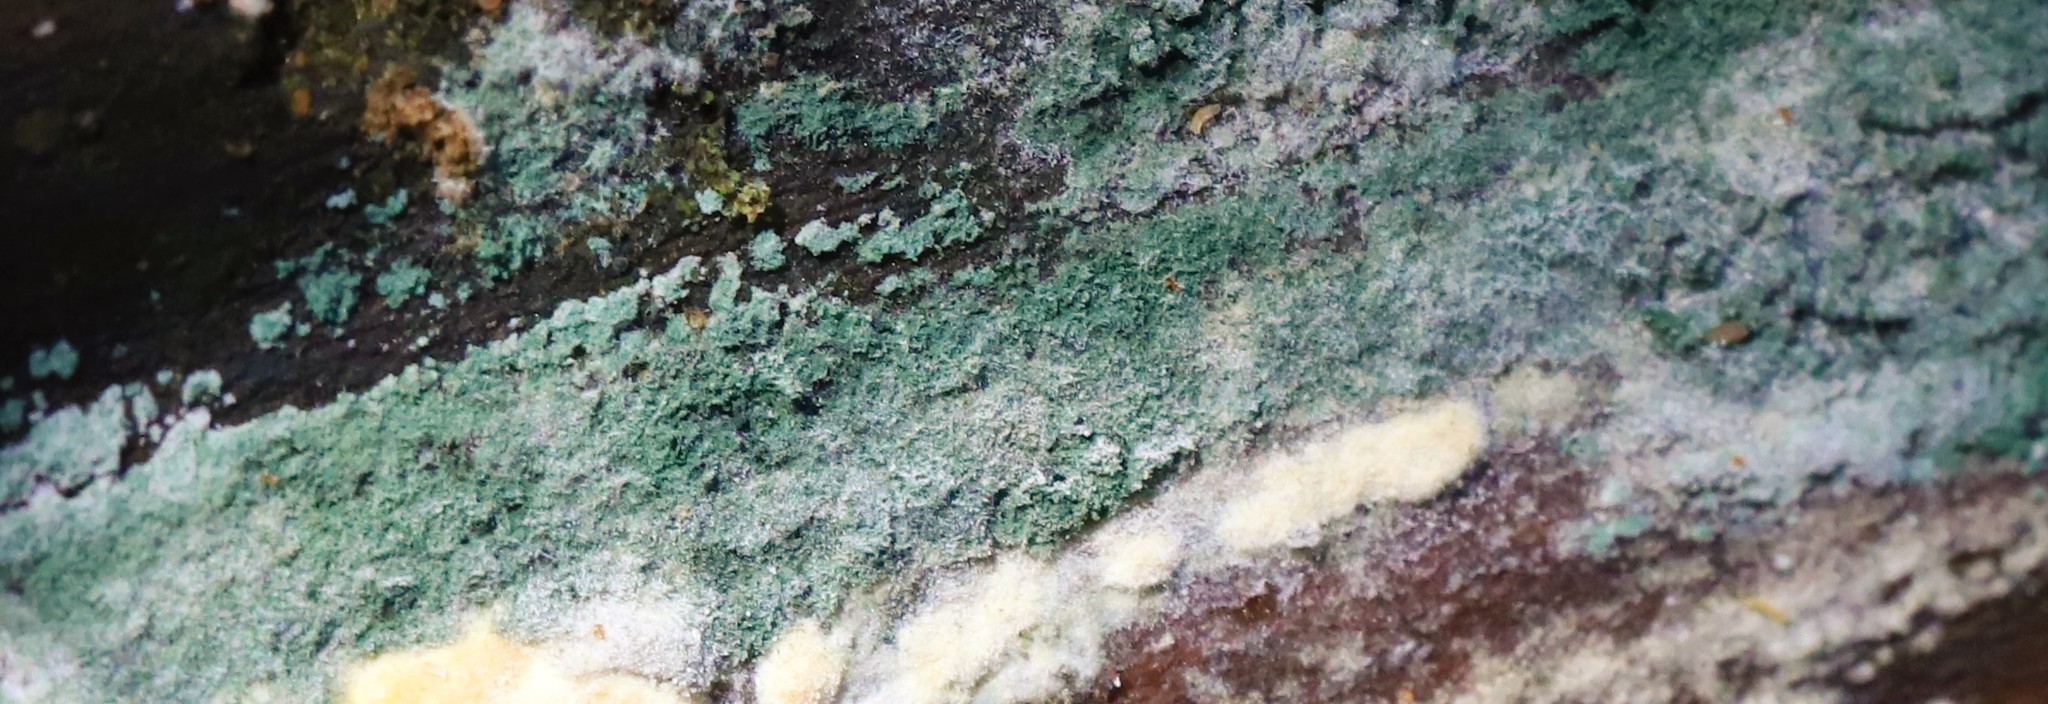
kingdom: Fungi
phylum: Ascomycota
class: Sordariomycetes
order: Hypocreales
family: Hypocreaceae
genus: Trichoderma
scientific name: Trichoderma viride
